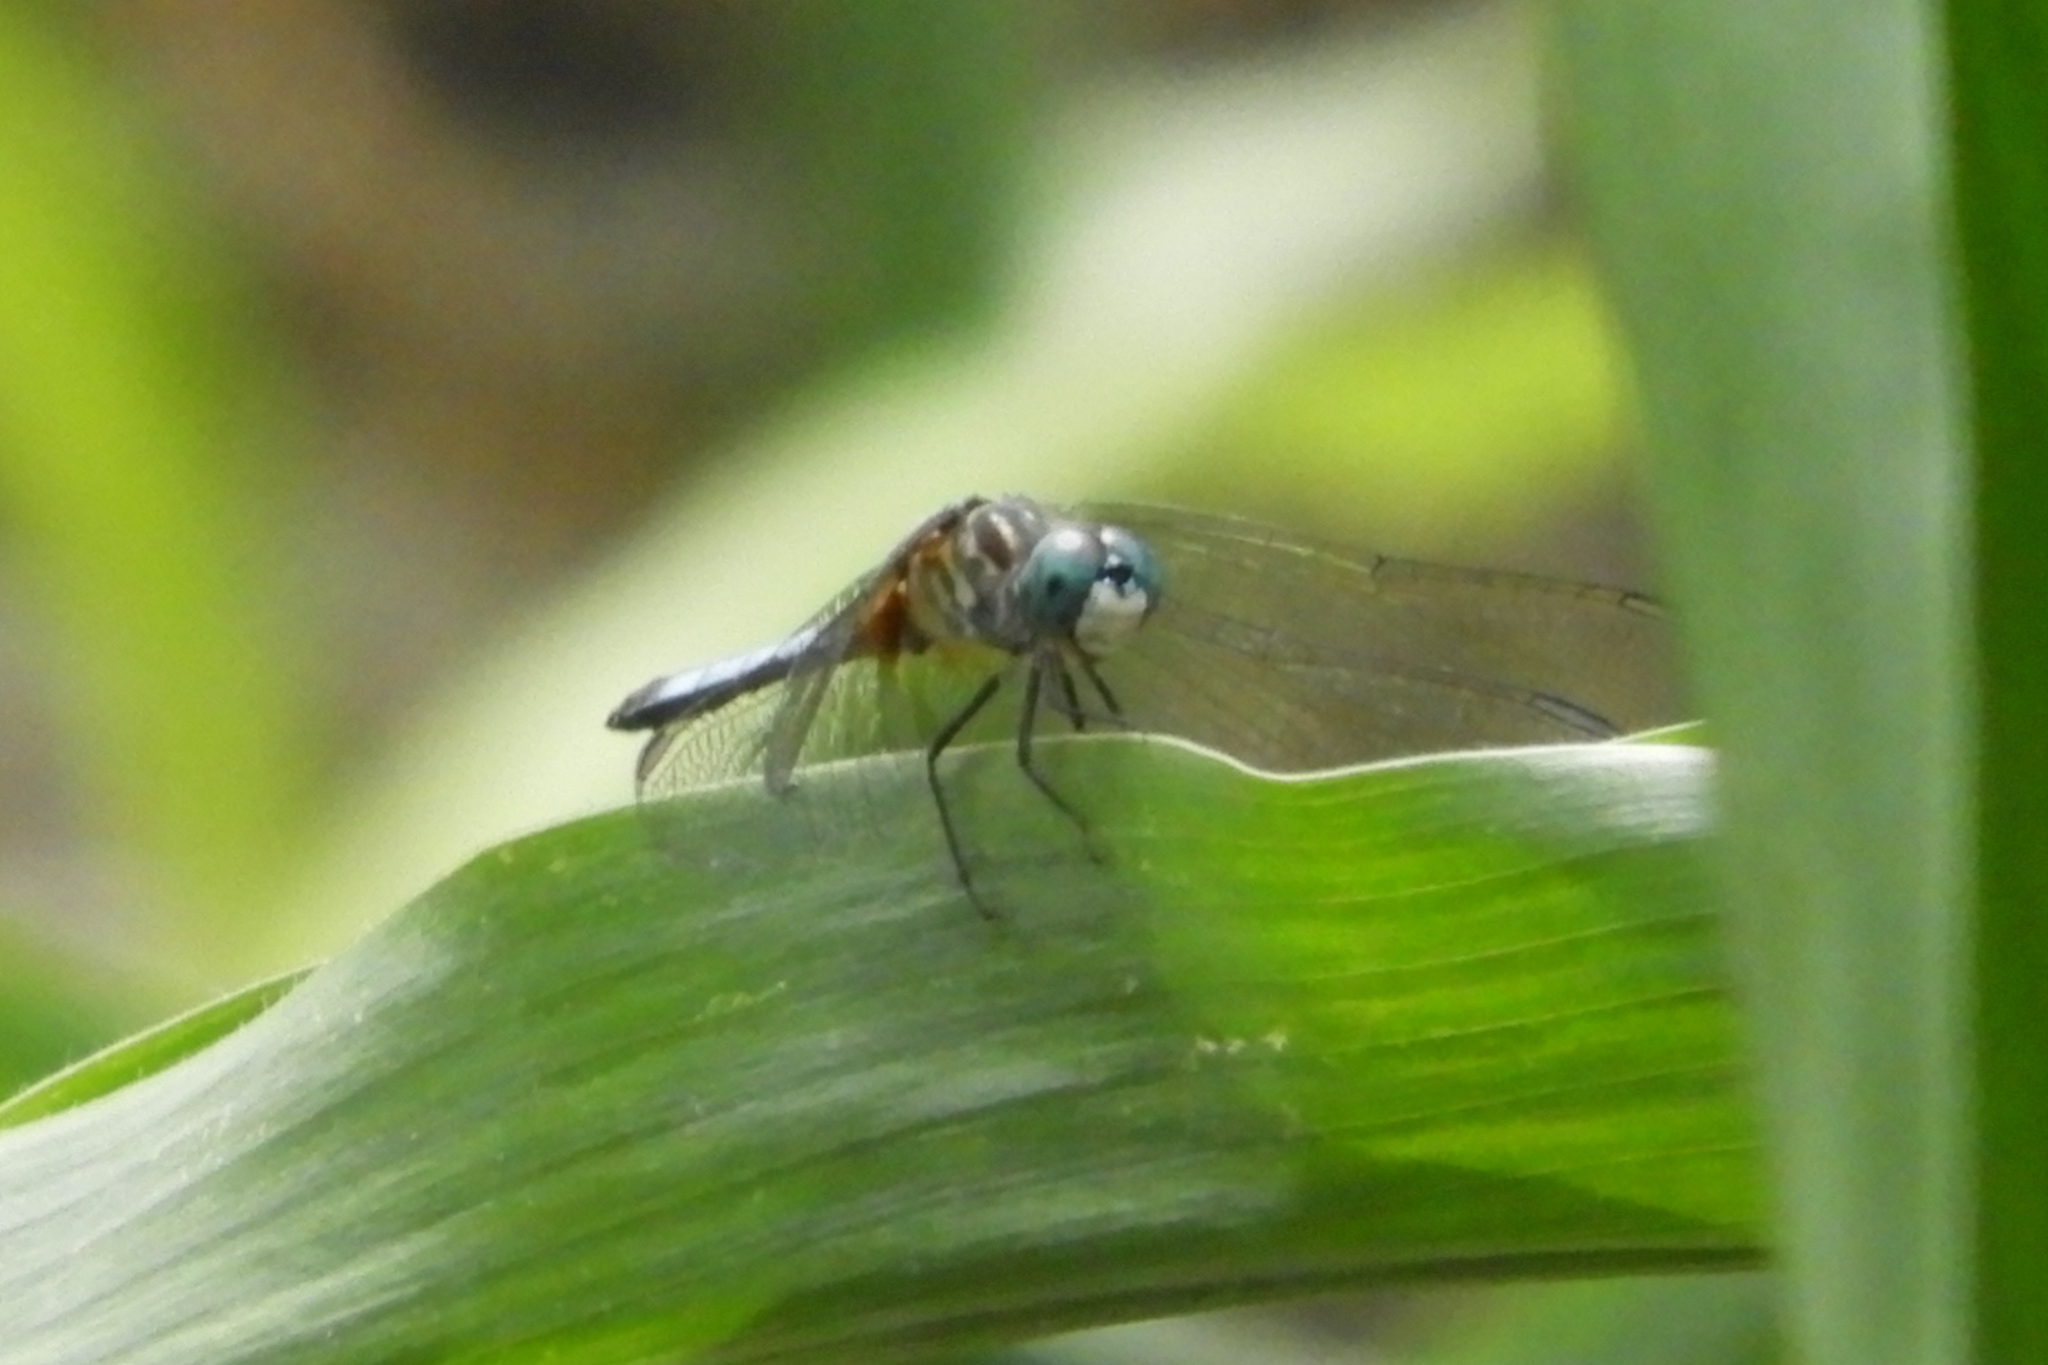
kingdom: Animalia
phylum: Arthropoda
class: Insecta
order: Odonata
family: Libellulidae
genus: Pachydiplax
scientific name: Pachydiplax longipennis
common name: Blue dasher
